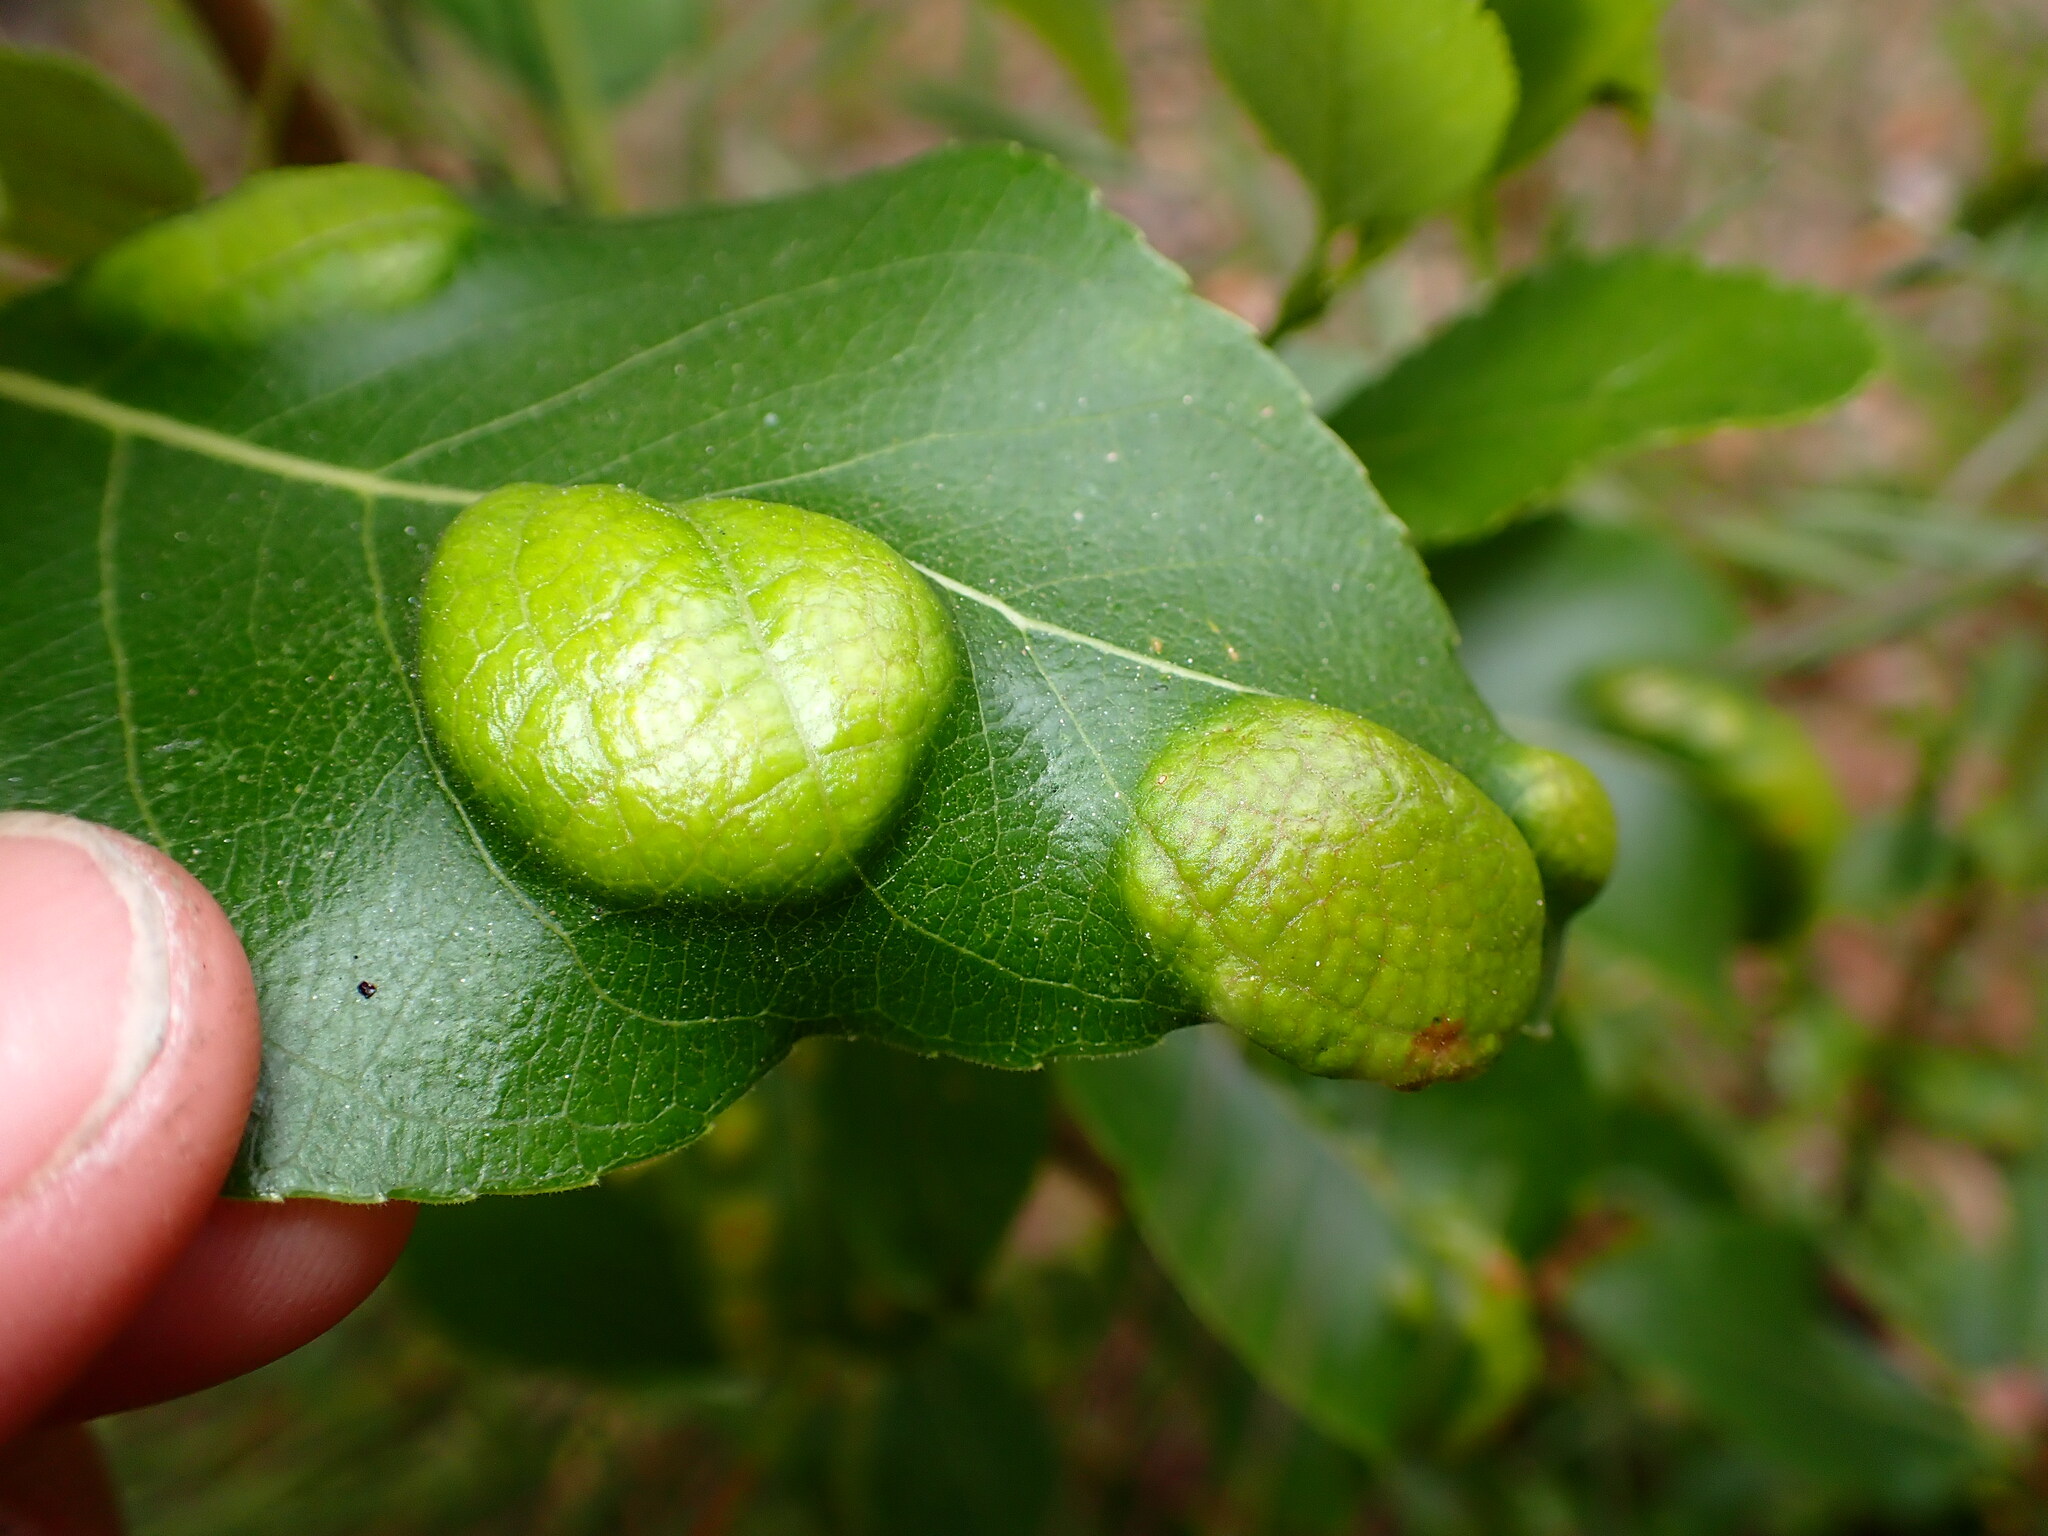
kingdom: Fungi
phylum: Ascomycota
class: Taphrinomycetes
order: Taphrinales
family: Taphrinaceae
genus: Taphrina
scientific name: Taphrina populi-salicis
